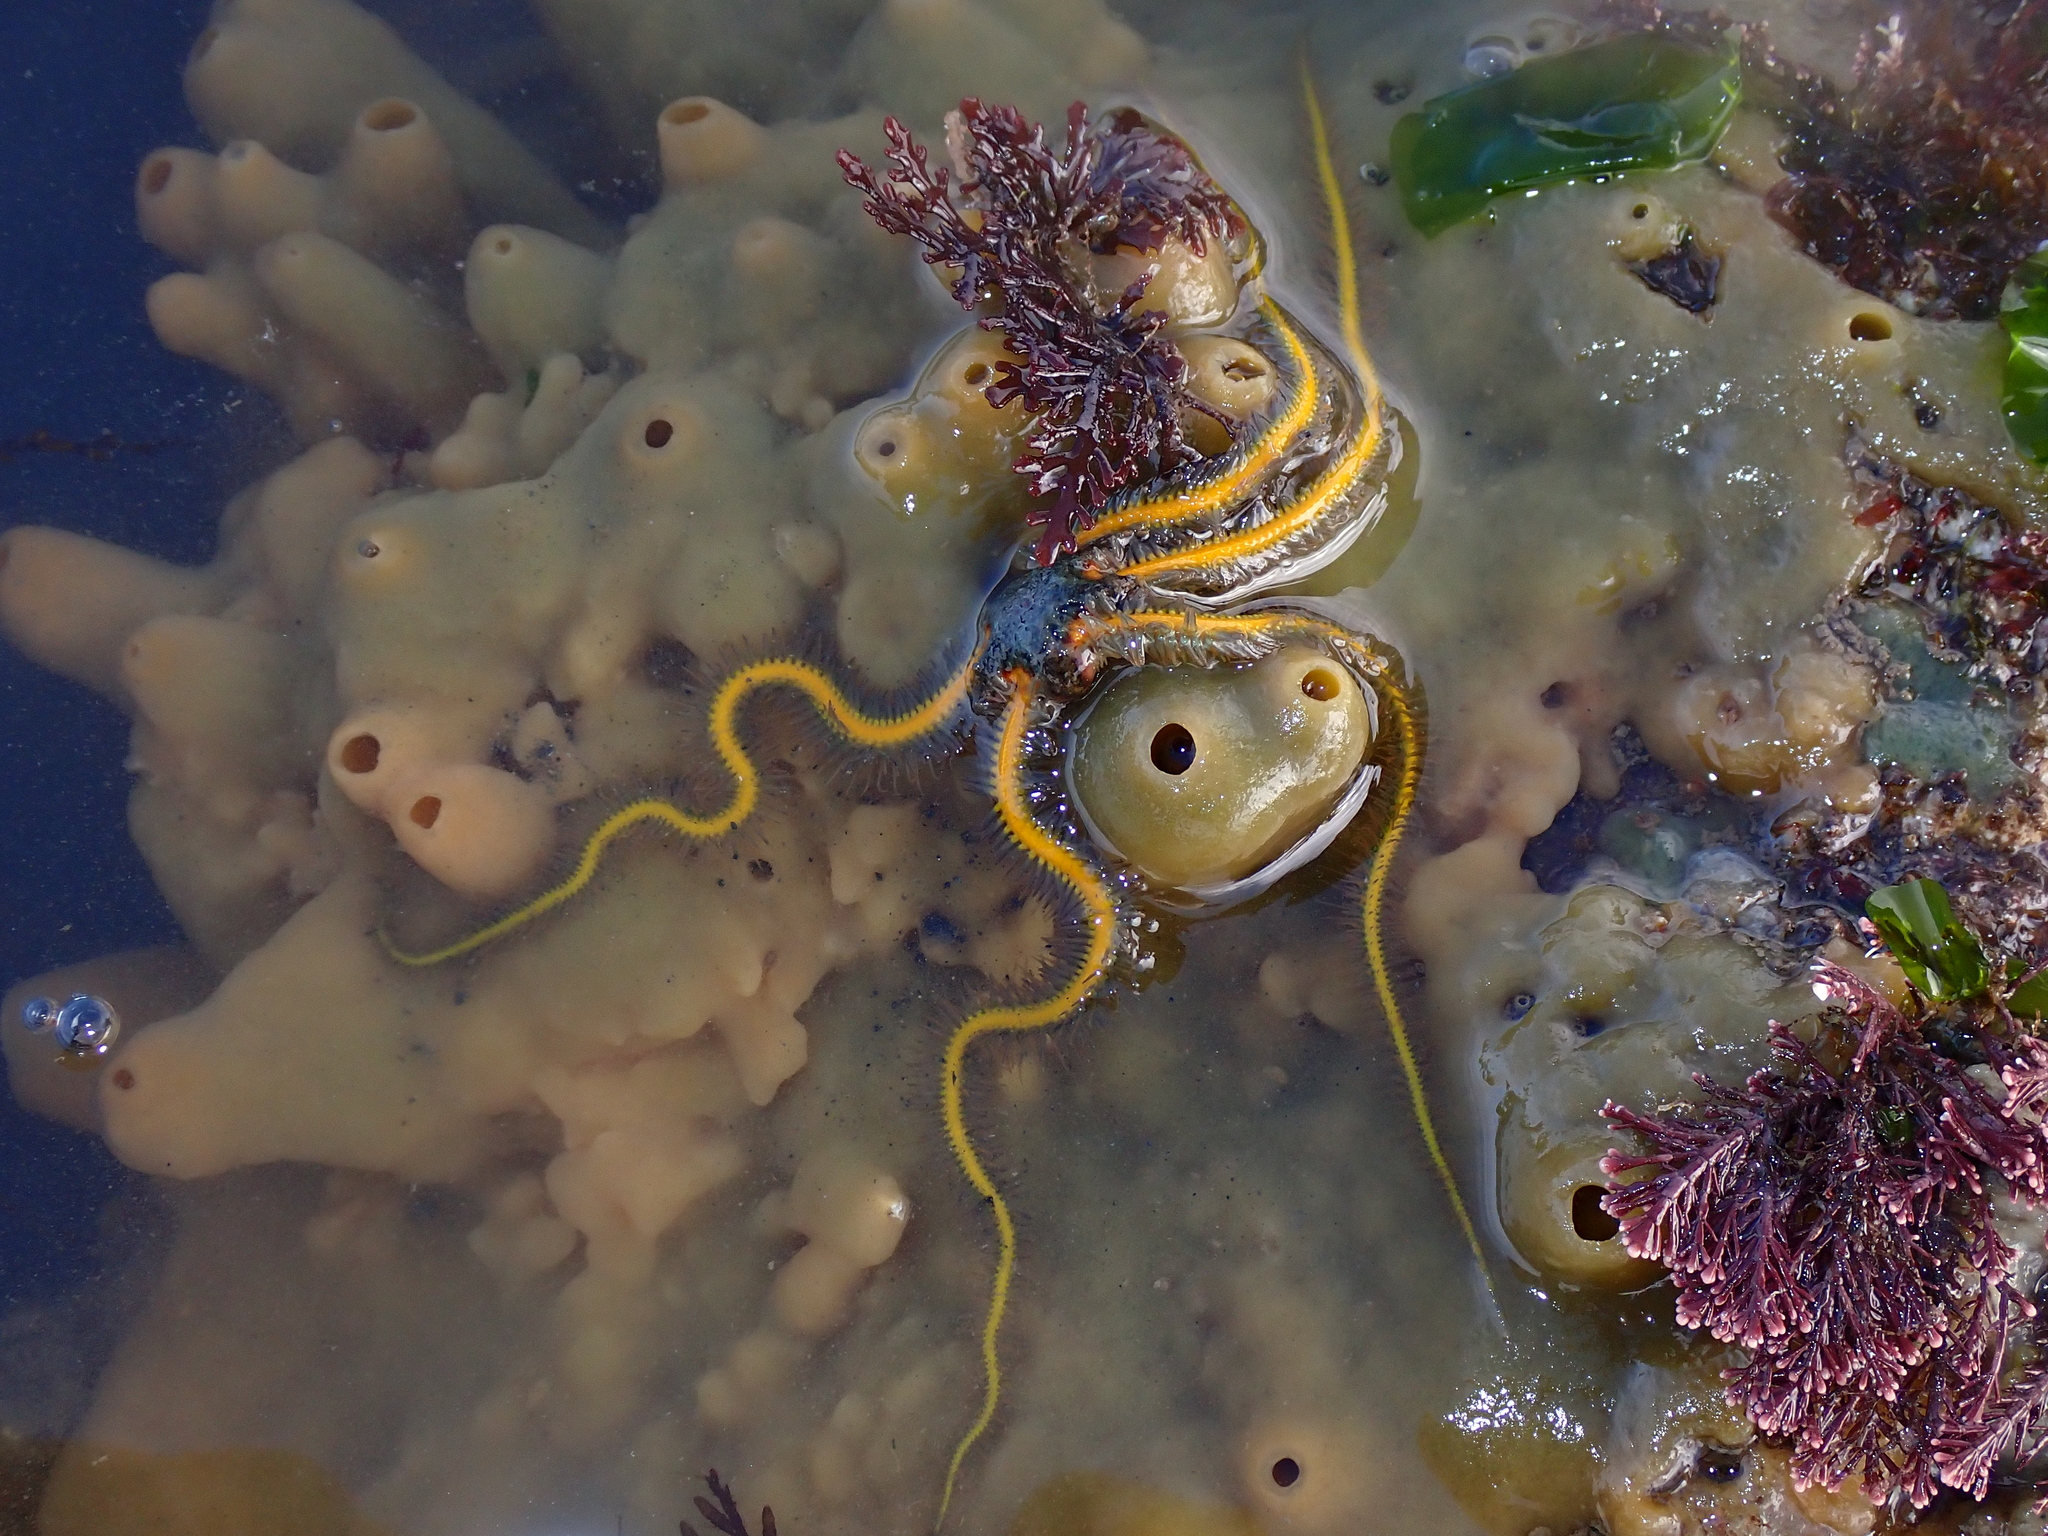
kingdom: Animalia
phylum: Echinodermata
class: Ophiuroidea
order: Amphilepidida
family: Ophiotrichidae
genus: Ophiothrix
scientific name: Ophiothrix fragilis
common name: Common brittlestar
